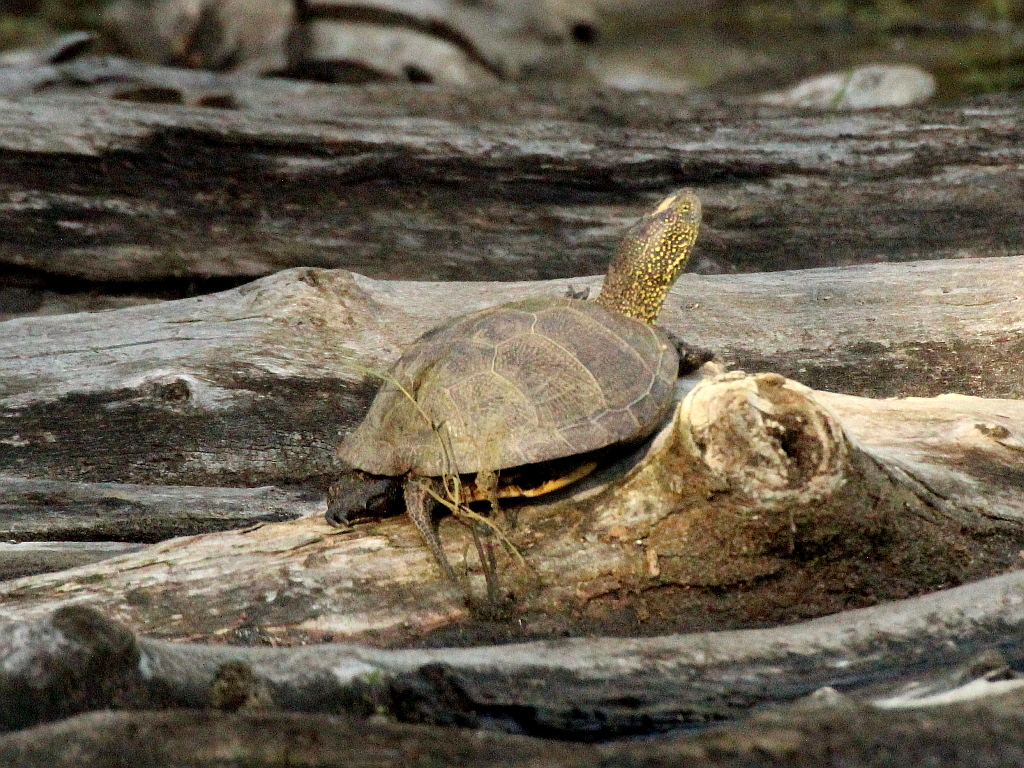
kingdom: Animalia
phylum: Chordata
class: Testudines
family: Emydidae
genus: Emys
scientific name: Emys orbicularis
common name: European pond turtle
